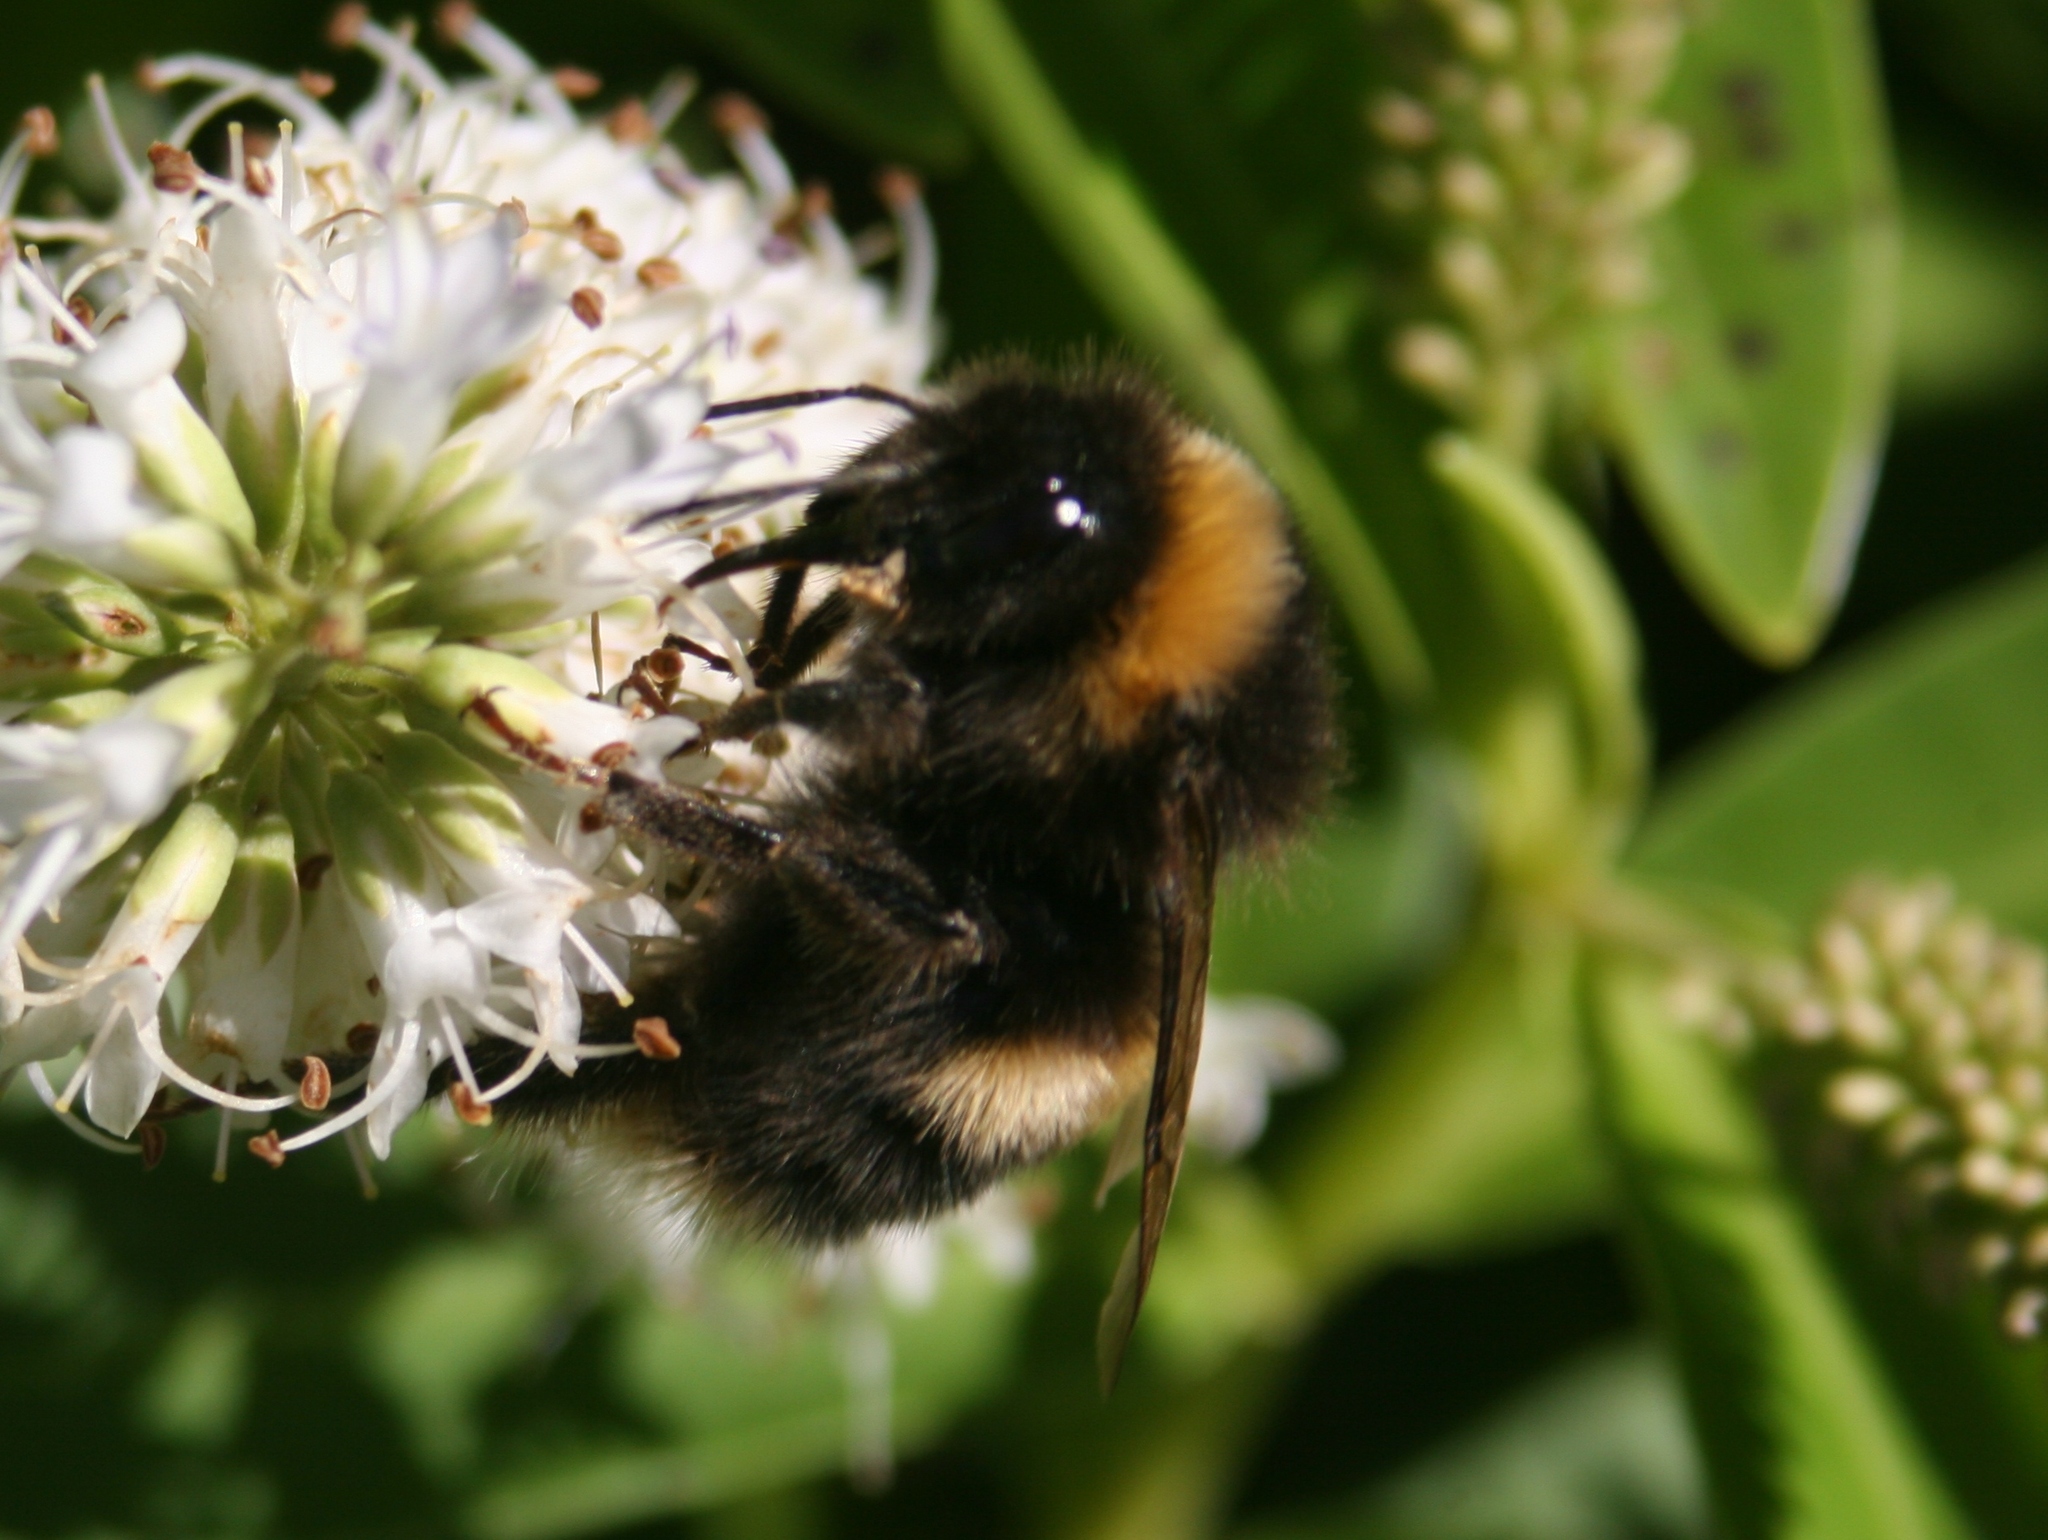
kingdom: Animalia
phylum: Arthropoda
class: Insecta
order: Hymenoptera
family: Apidae
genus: Bombus
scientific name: Bombus terrestris
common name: Buff-tailed bumblebee
